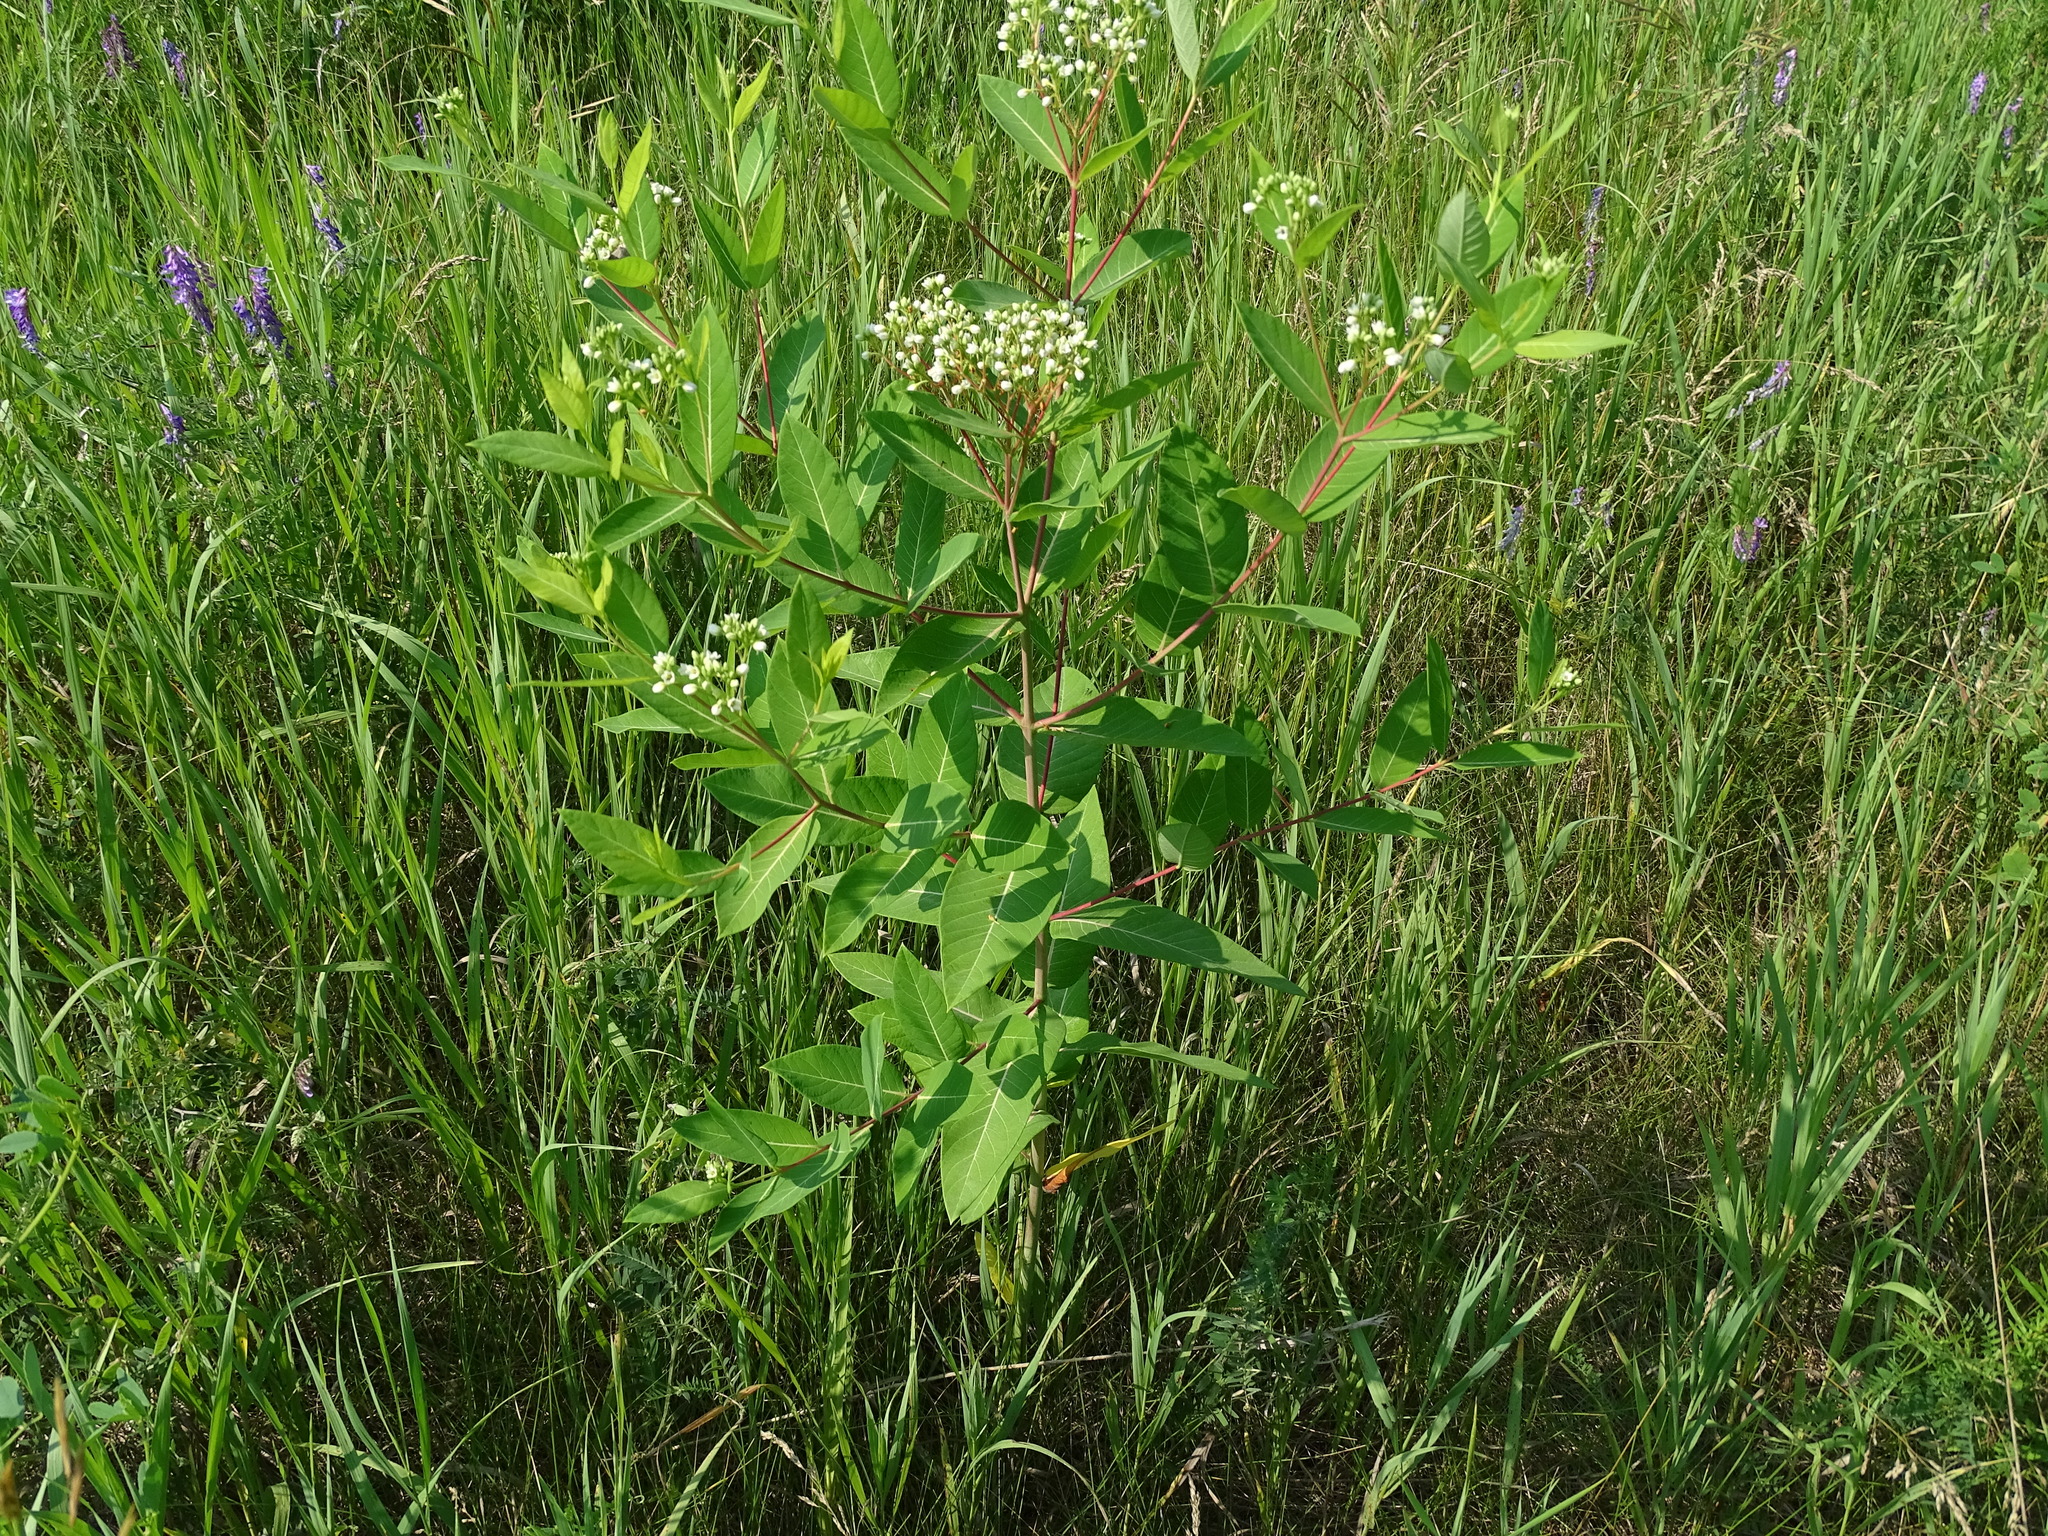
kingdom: Plantae
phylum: Tracheophyta
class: Magnoliopsida
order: Gentianales
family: Apocynaceae
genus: Apocynum
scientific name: Apocynum cannabinum
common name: Hemp dogbane
